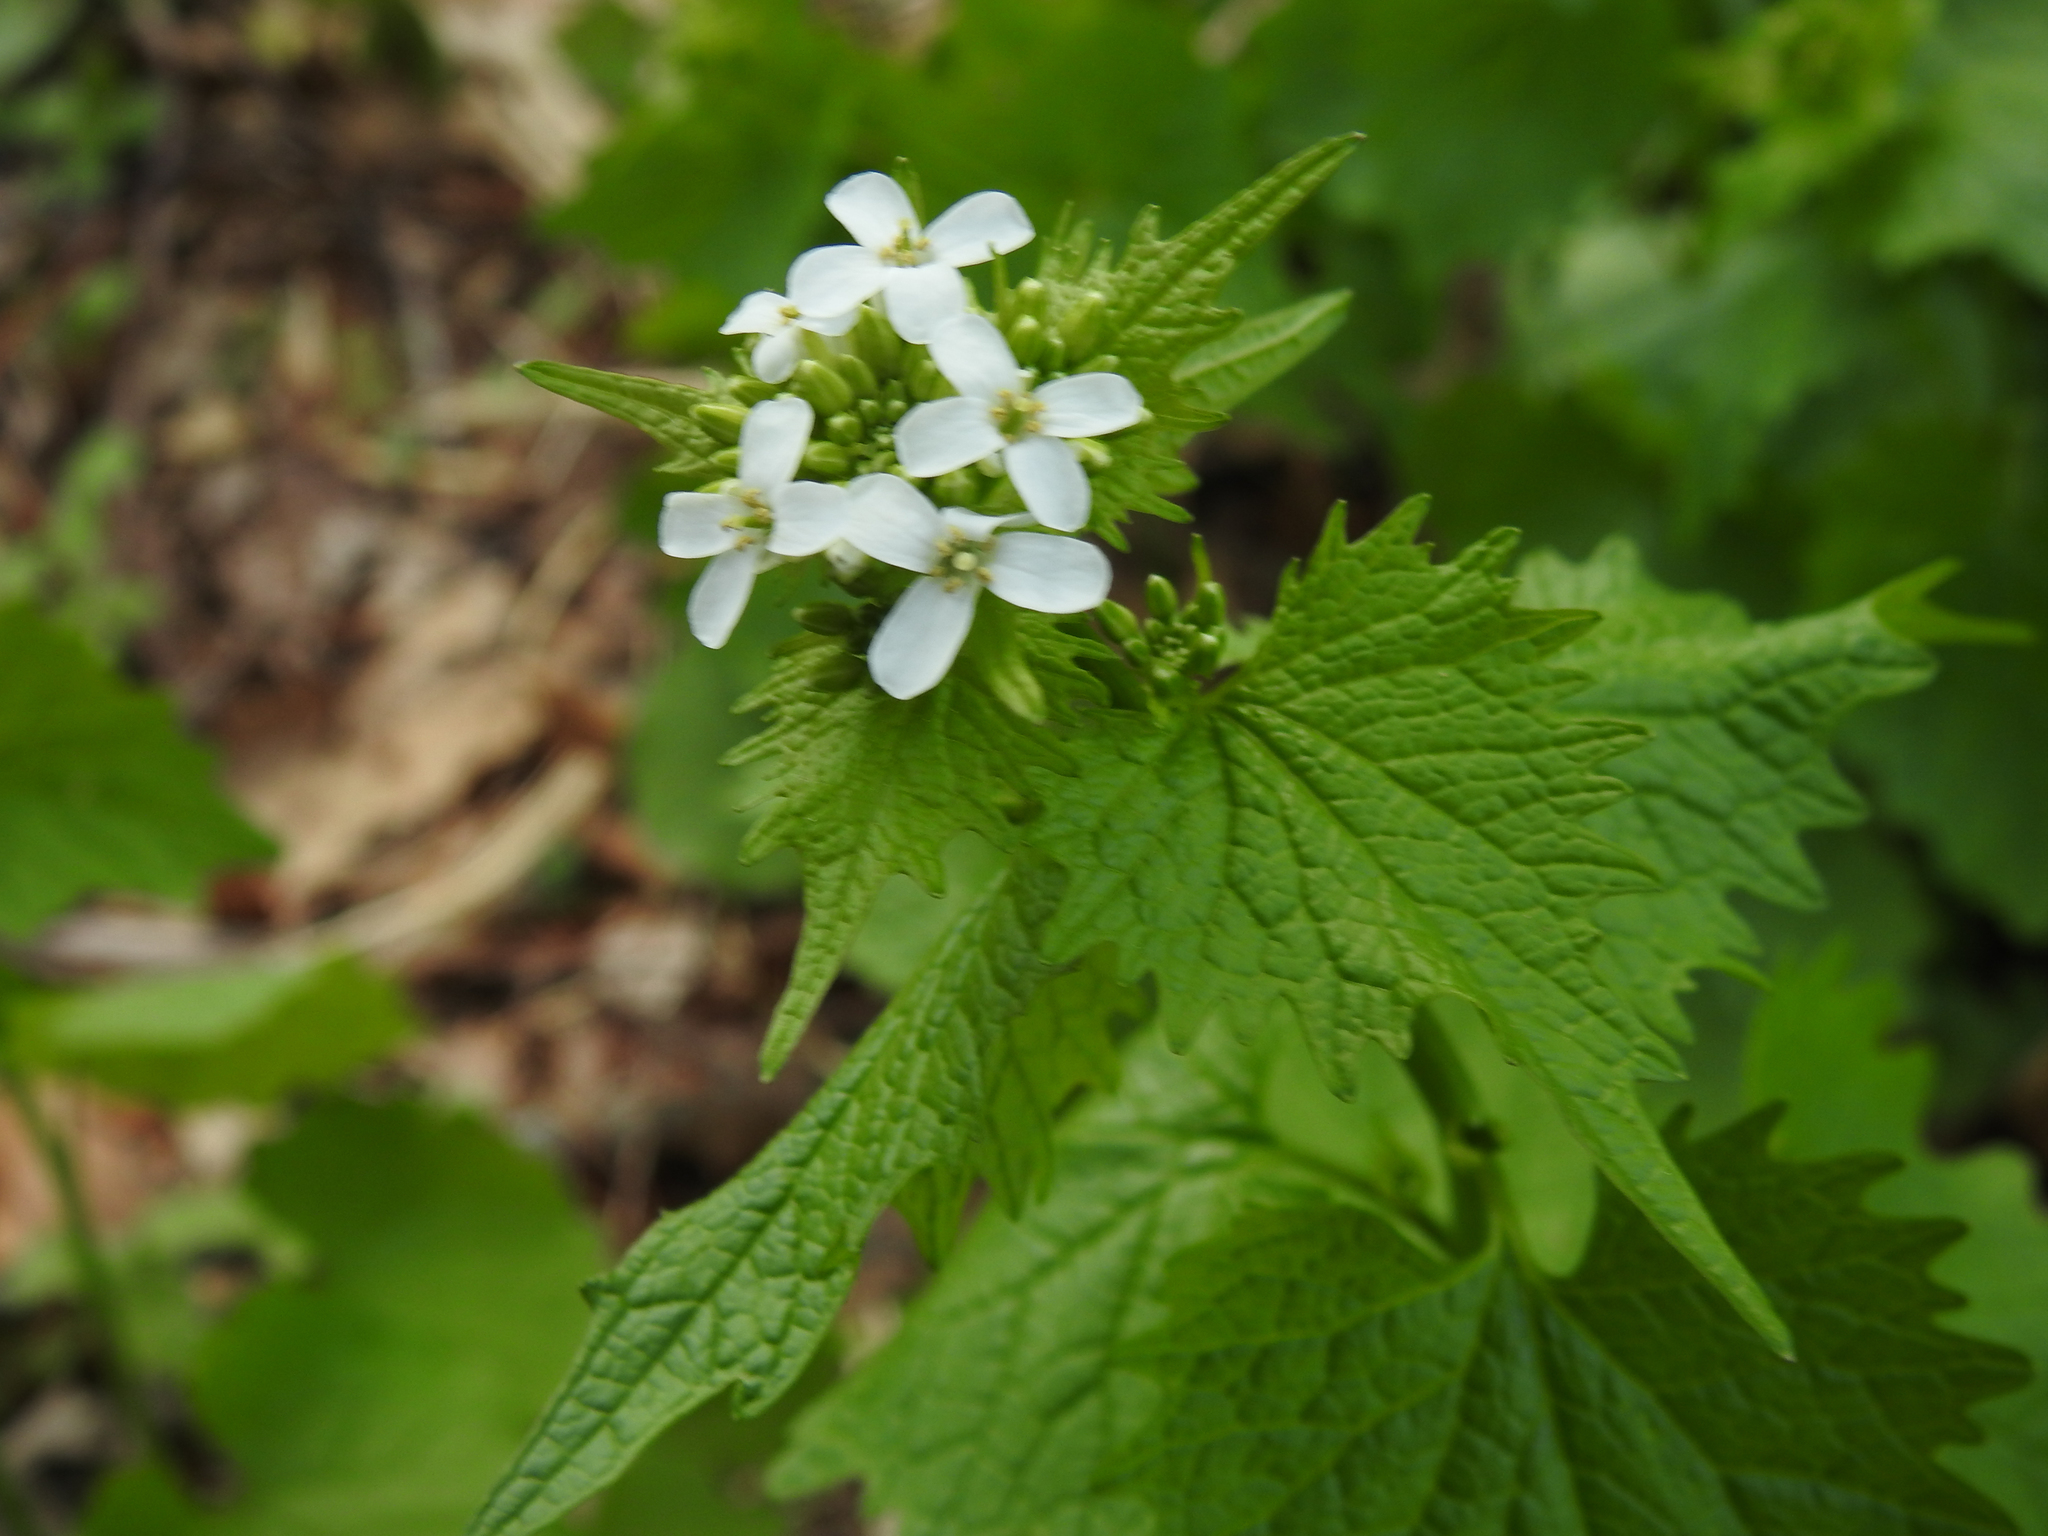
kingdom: Plantae
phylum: Tracheophyta
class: Magnoliopsida
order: Brassicales
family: Brassicaceae
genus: Alliaria
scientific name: Alliaria petiolata
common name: Garlic mustard
